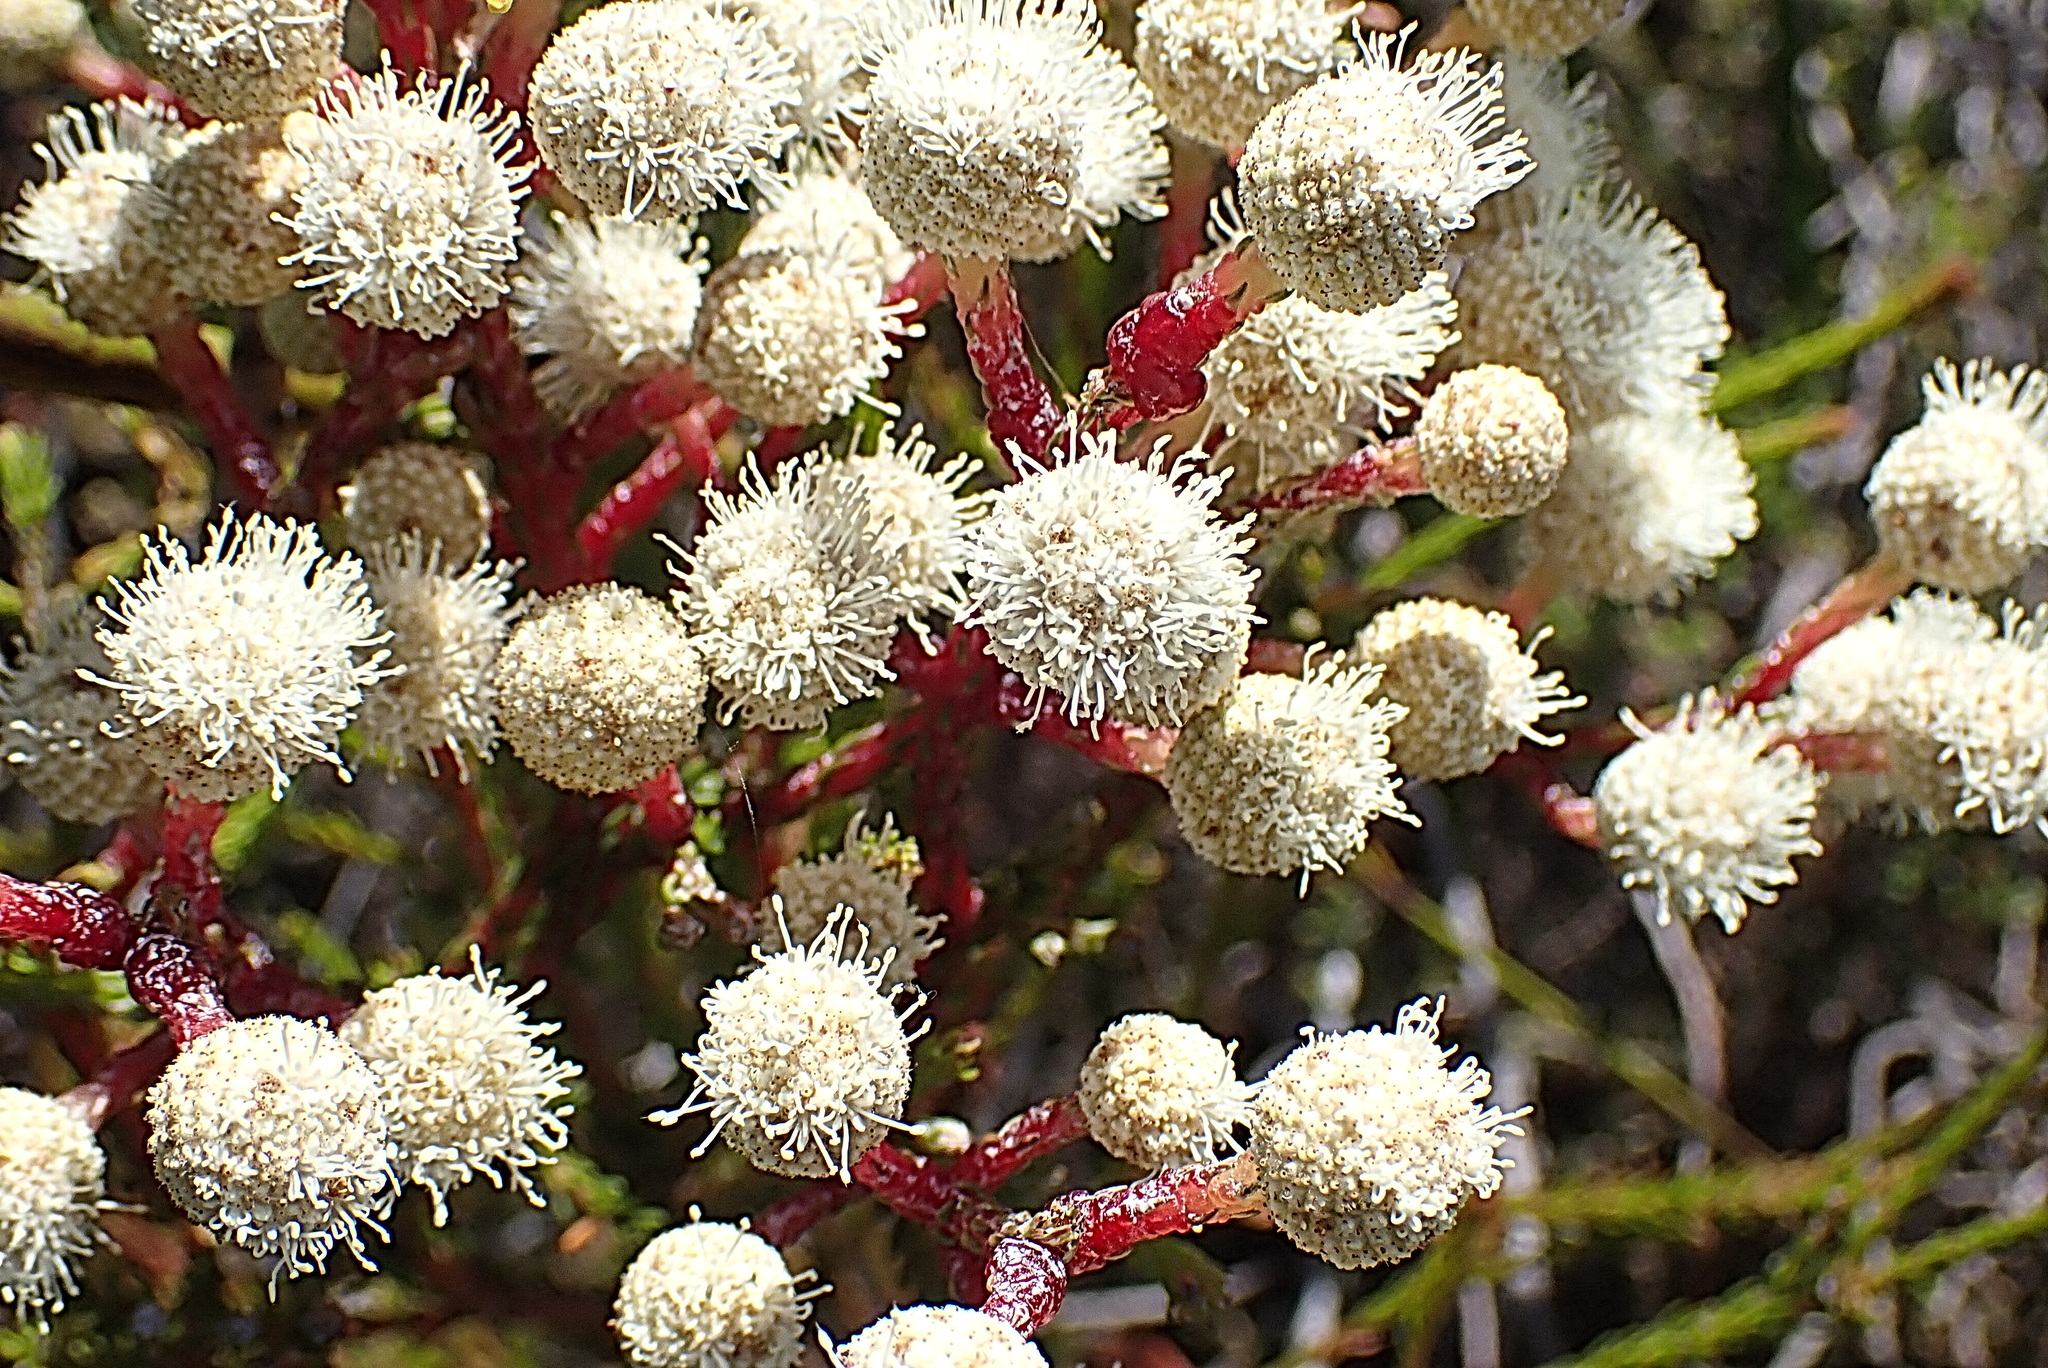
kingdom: Plantae
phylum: Tracheophyta
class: Magnoliopsida
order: Bruniales
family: Bruniaceae
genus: Berzelia
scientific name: Berzelia intermedia
